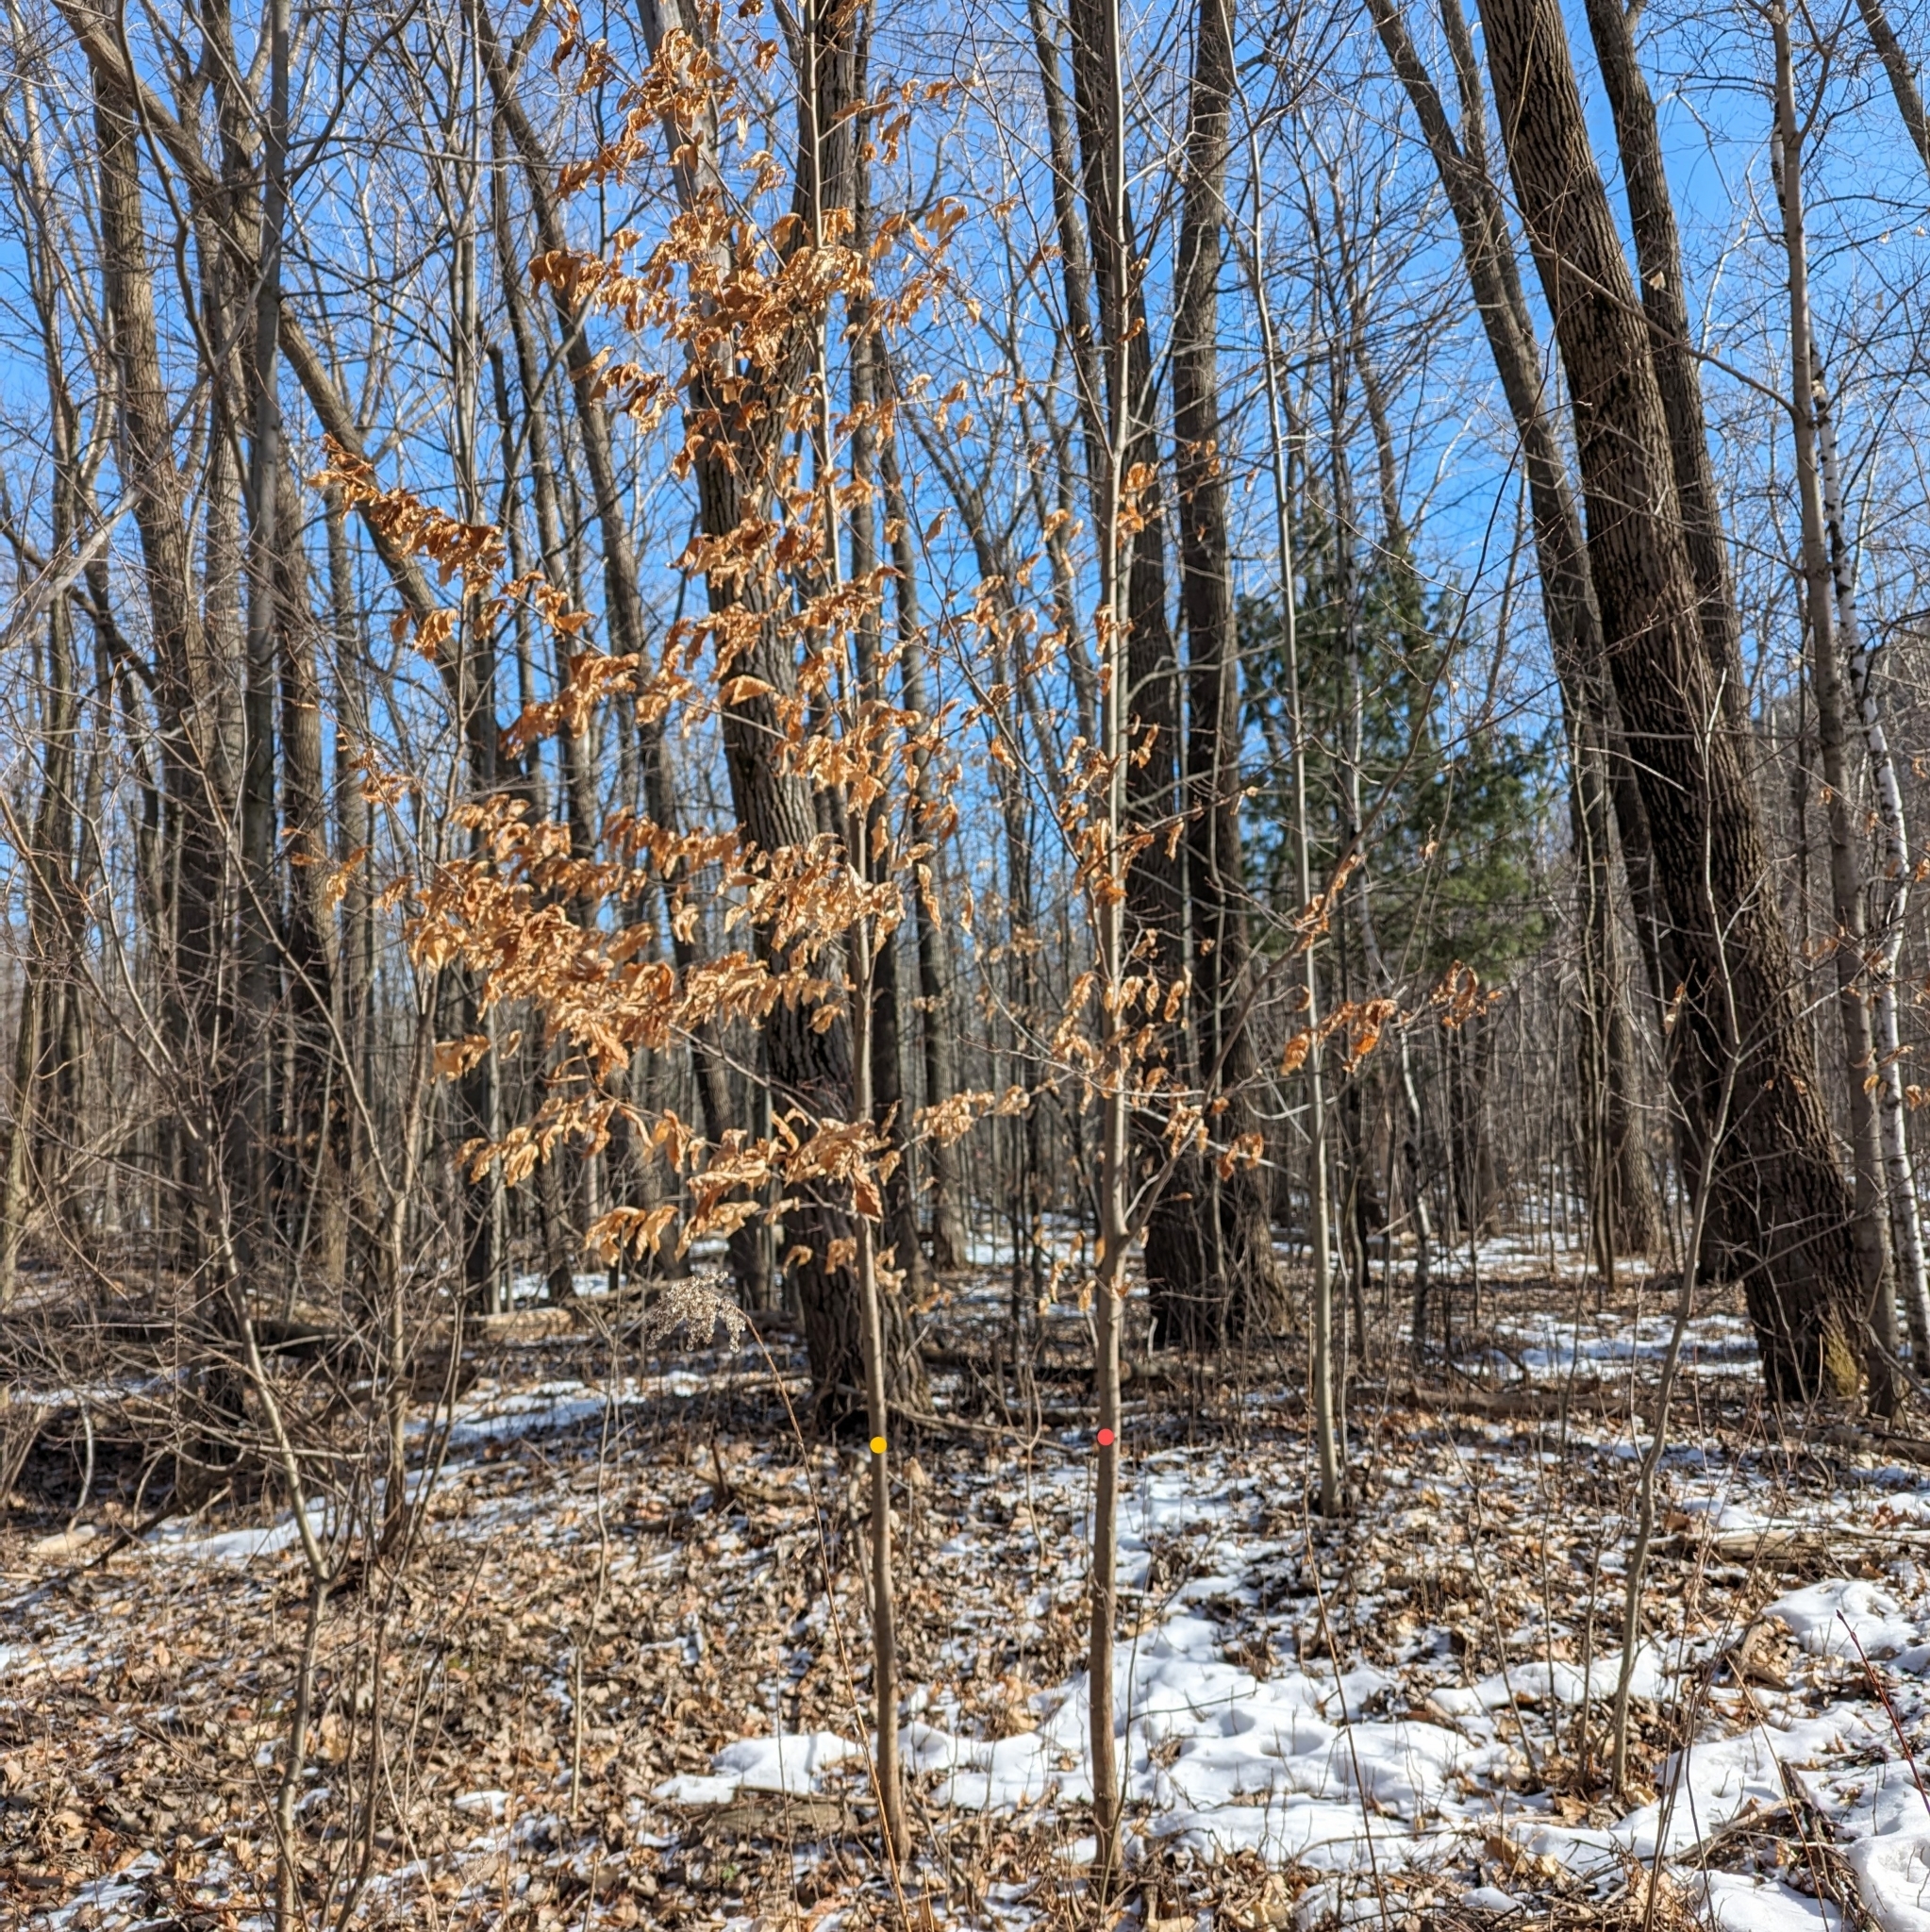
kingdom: Plantae
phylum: Tracheophyta
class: Magnoliopsida
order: Fagales
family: Betulaceae
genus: Ostrya
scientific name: Ostrya virginiana
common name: Ironwood
